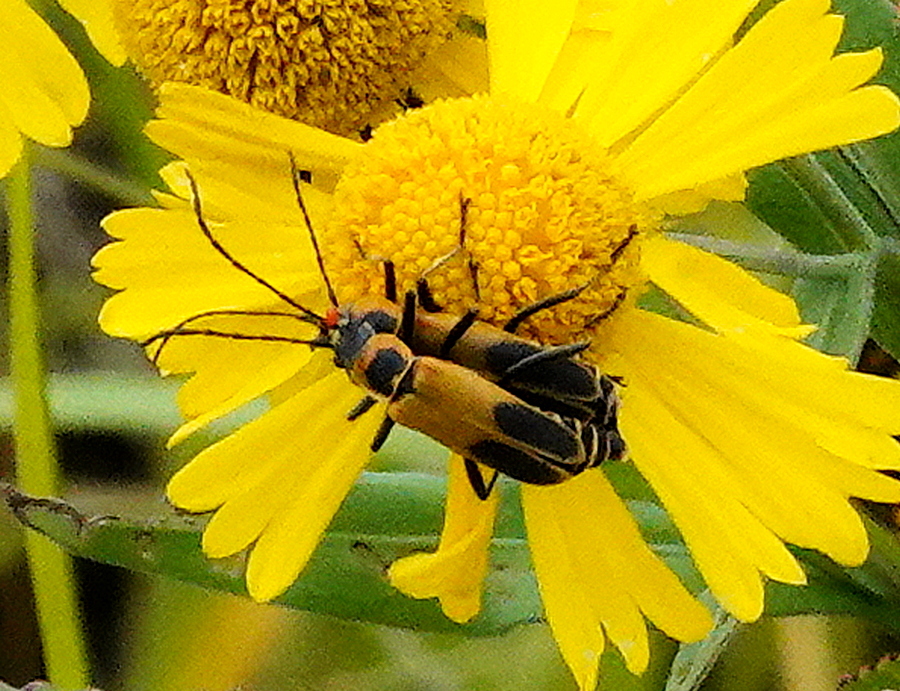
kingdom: Animalia
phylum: Arthropoda
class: Insecta
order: Coleoptera
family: Cantharidae
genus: Chauliognathus
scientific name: Chauliognathus pensylvanicus
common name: Goldenrod soldier beetle
